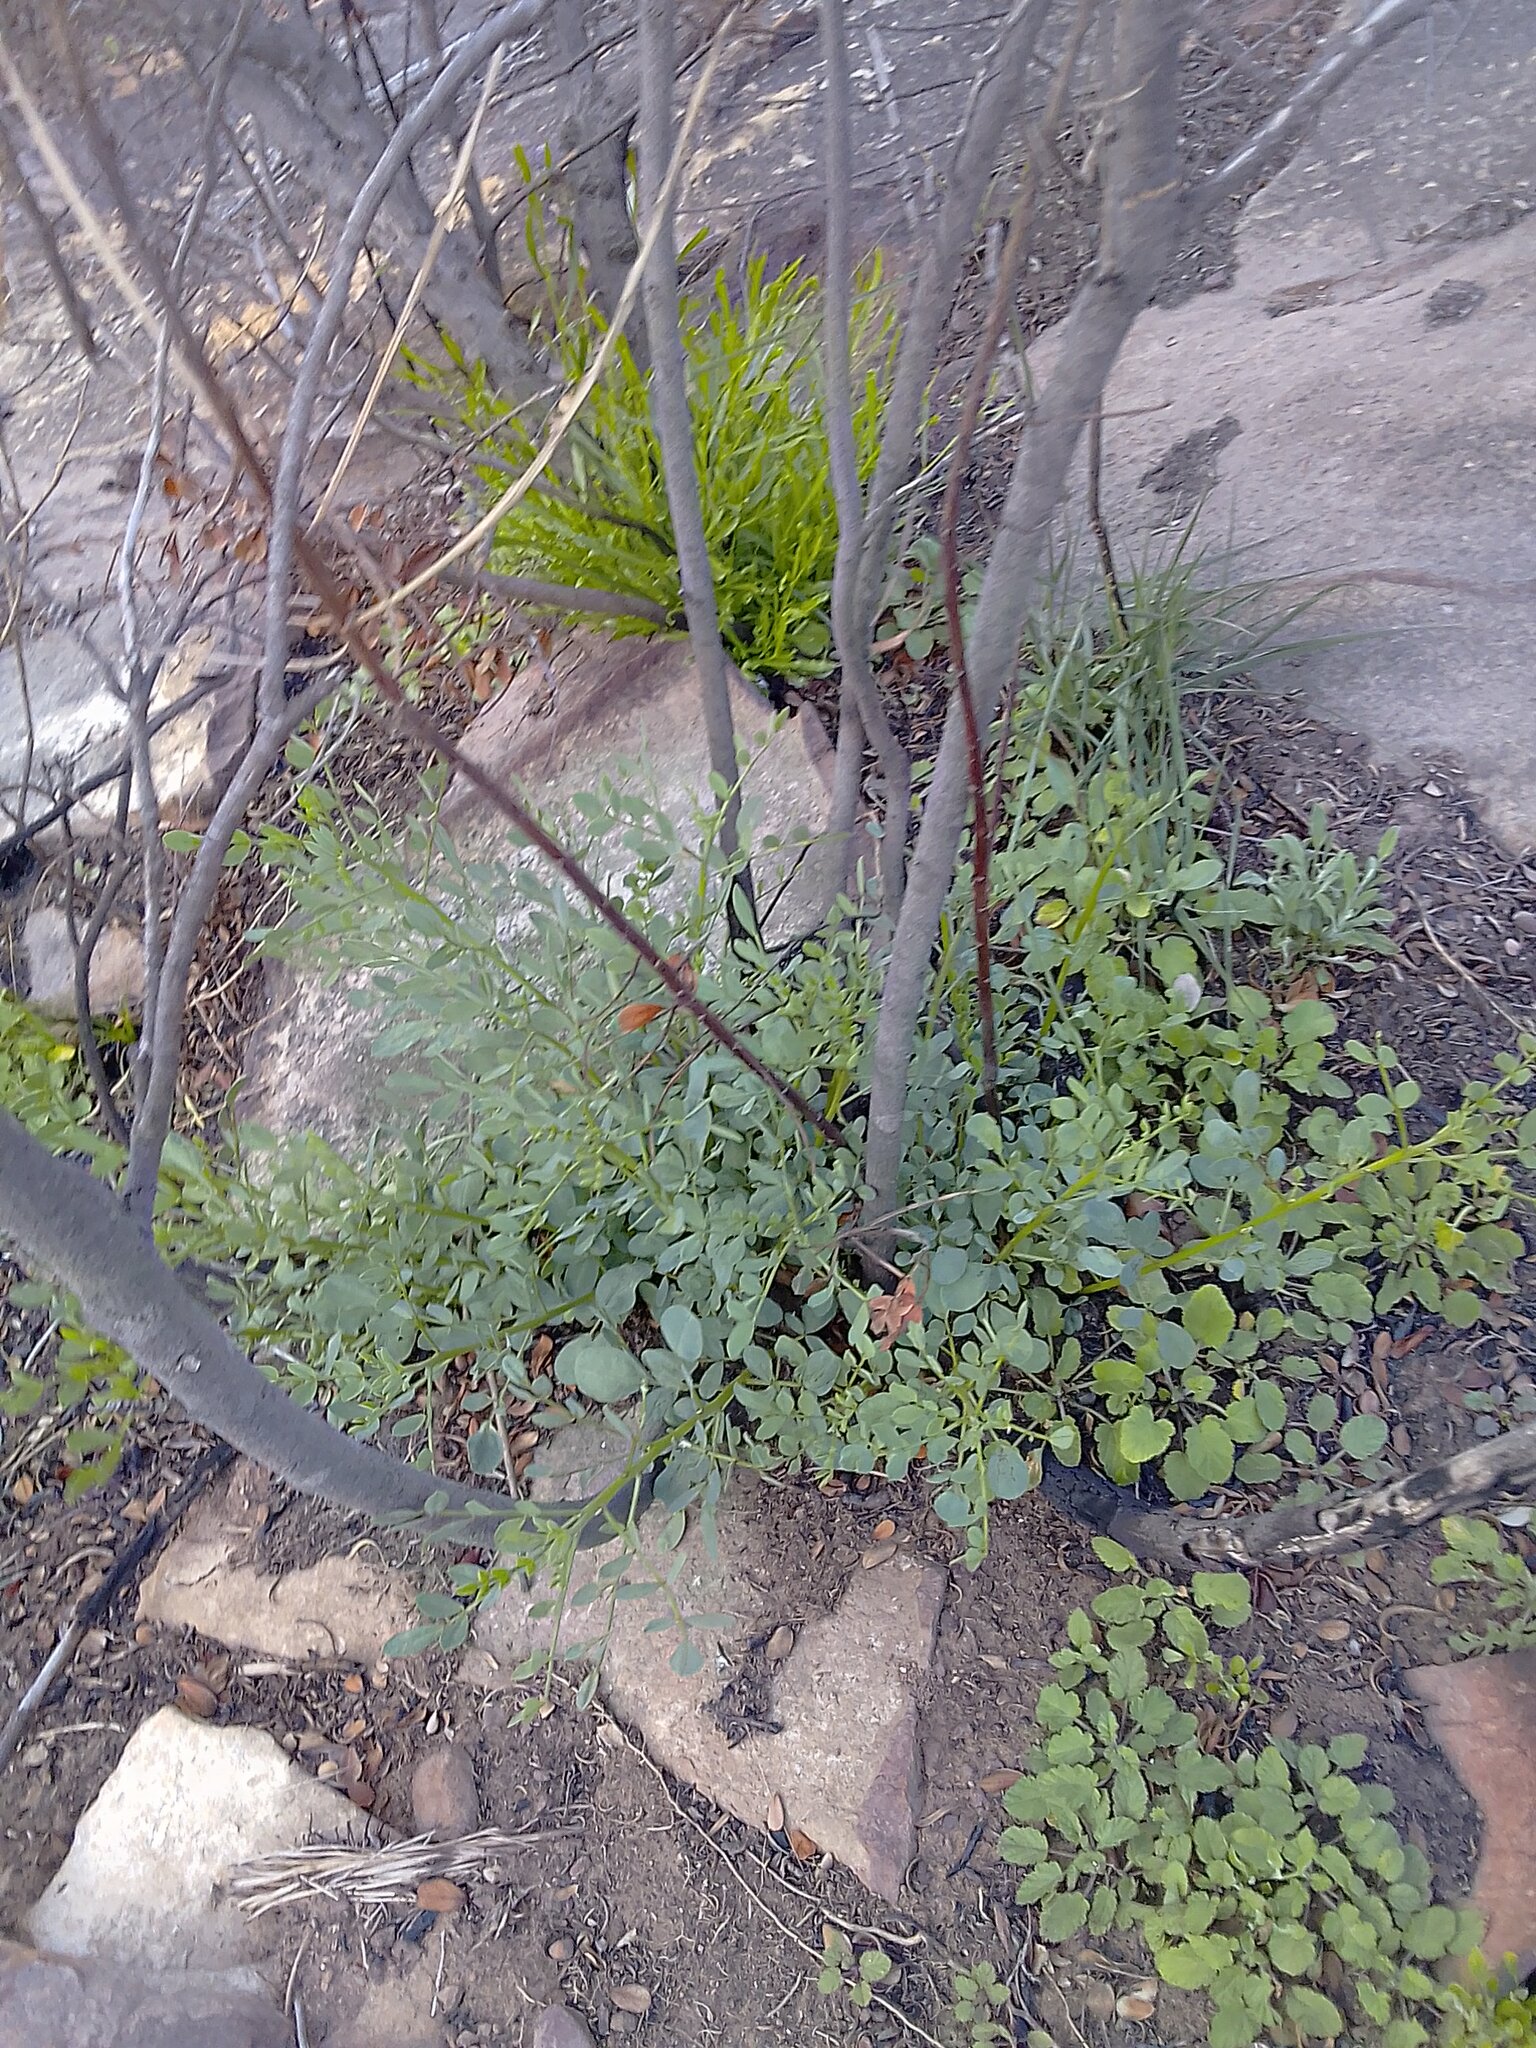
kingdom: Plantae
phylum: Tracheophyta
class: Magnoliopsida
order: Fabales
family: Fabaceae
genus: Indigofera
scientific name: Indigofera frutescens
